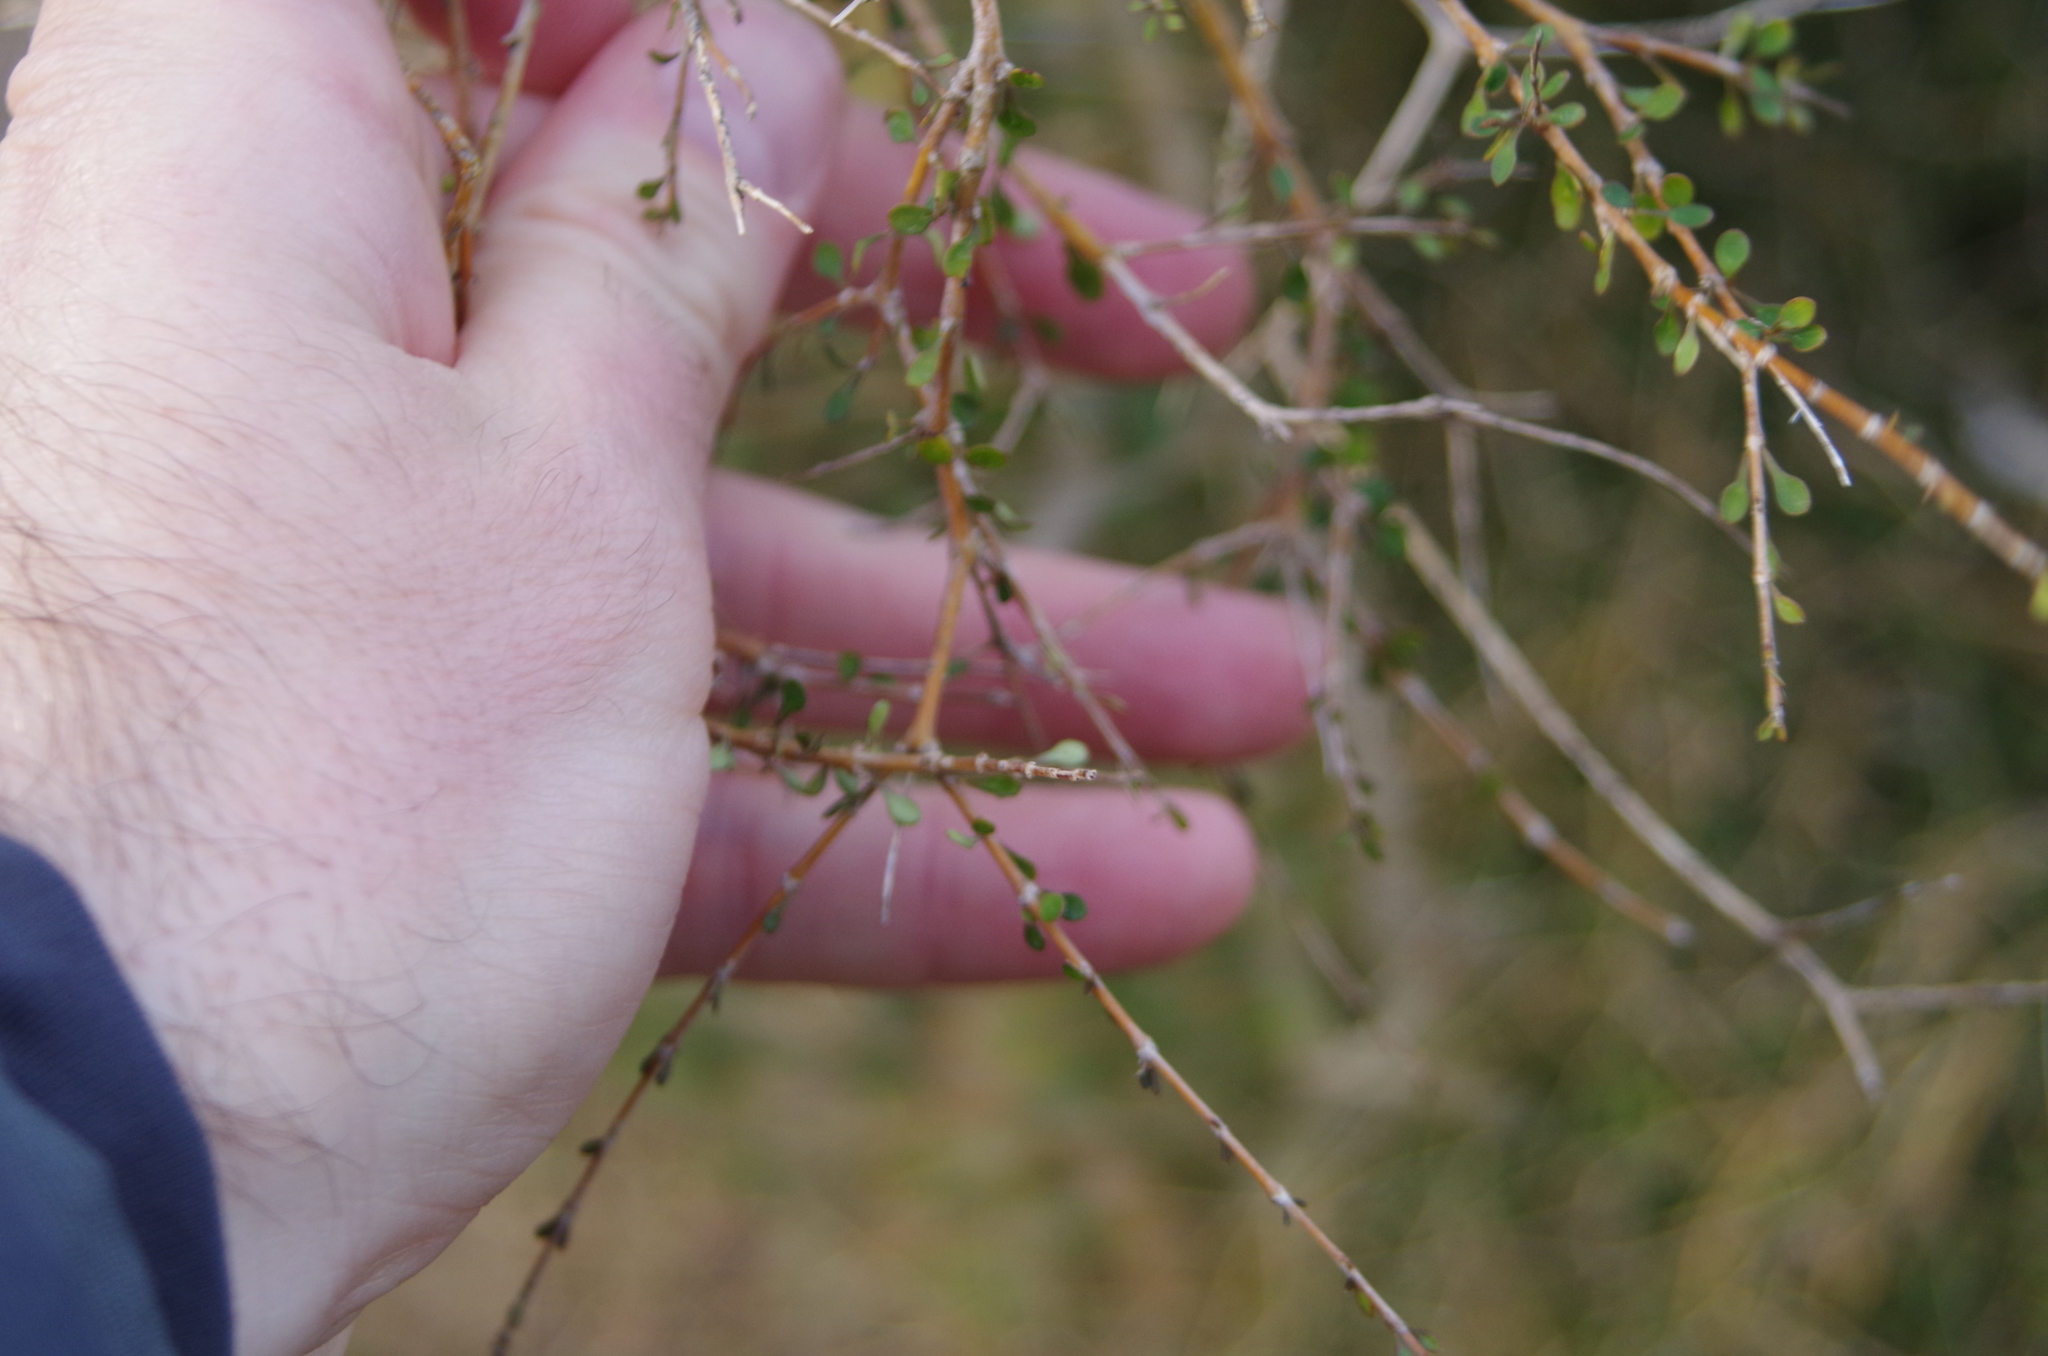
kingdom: Plantae
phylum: Tracheophyta
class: Magnoliopsida
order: Gentianales
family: Rubiaceae
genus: Coprosma
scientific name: Coprosma virescens
